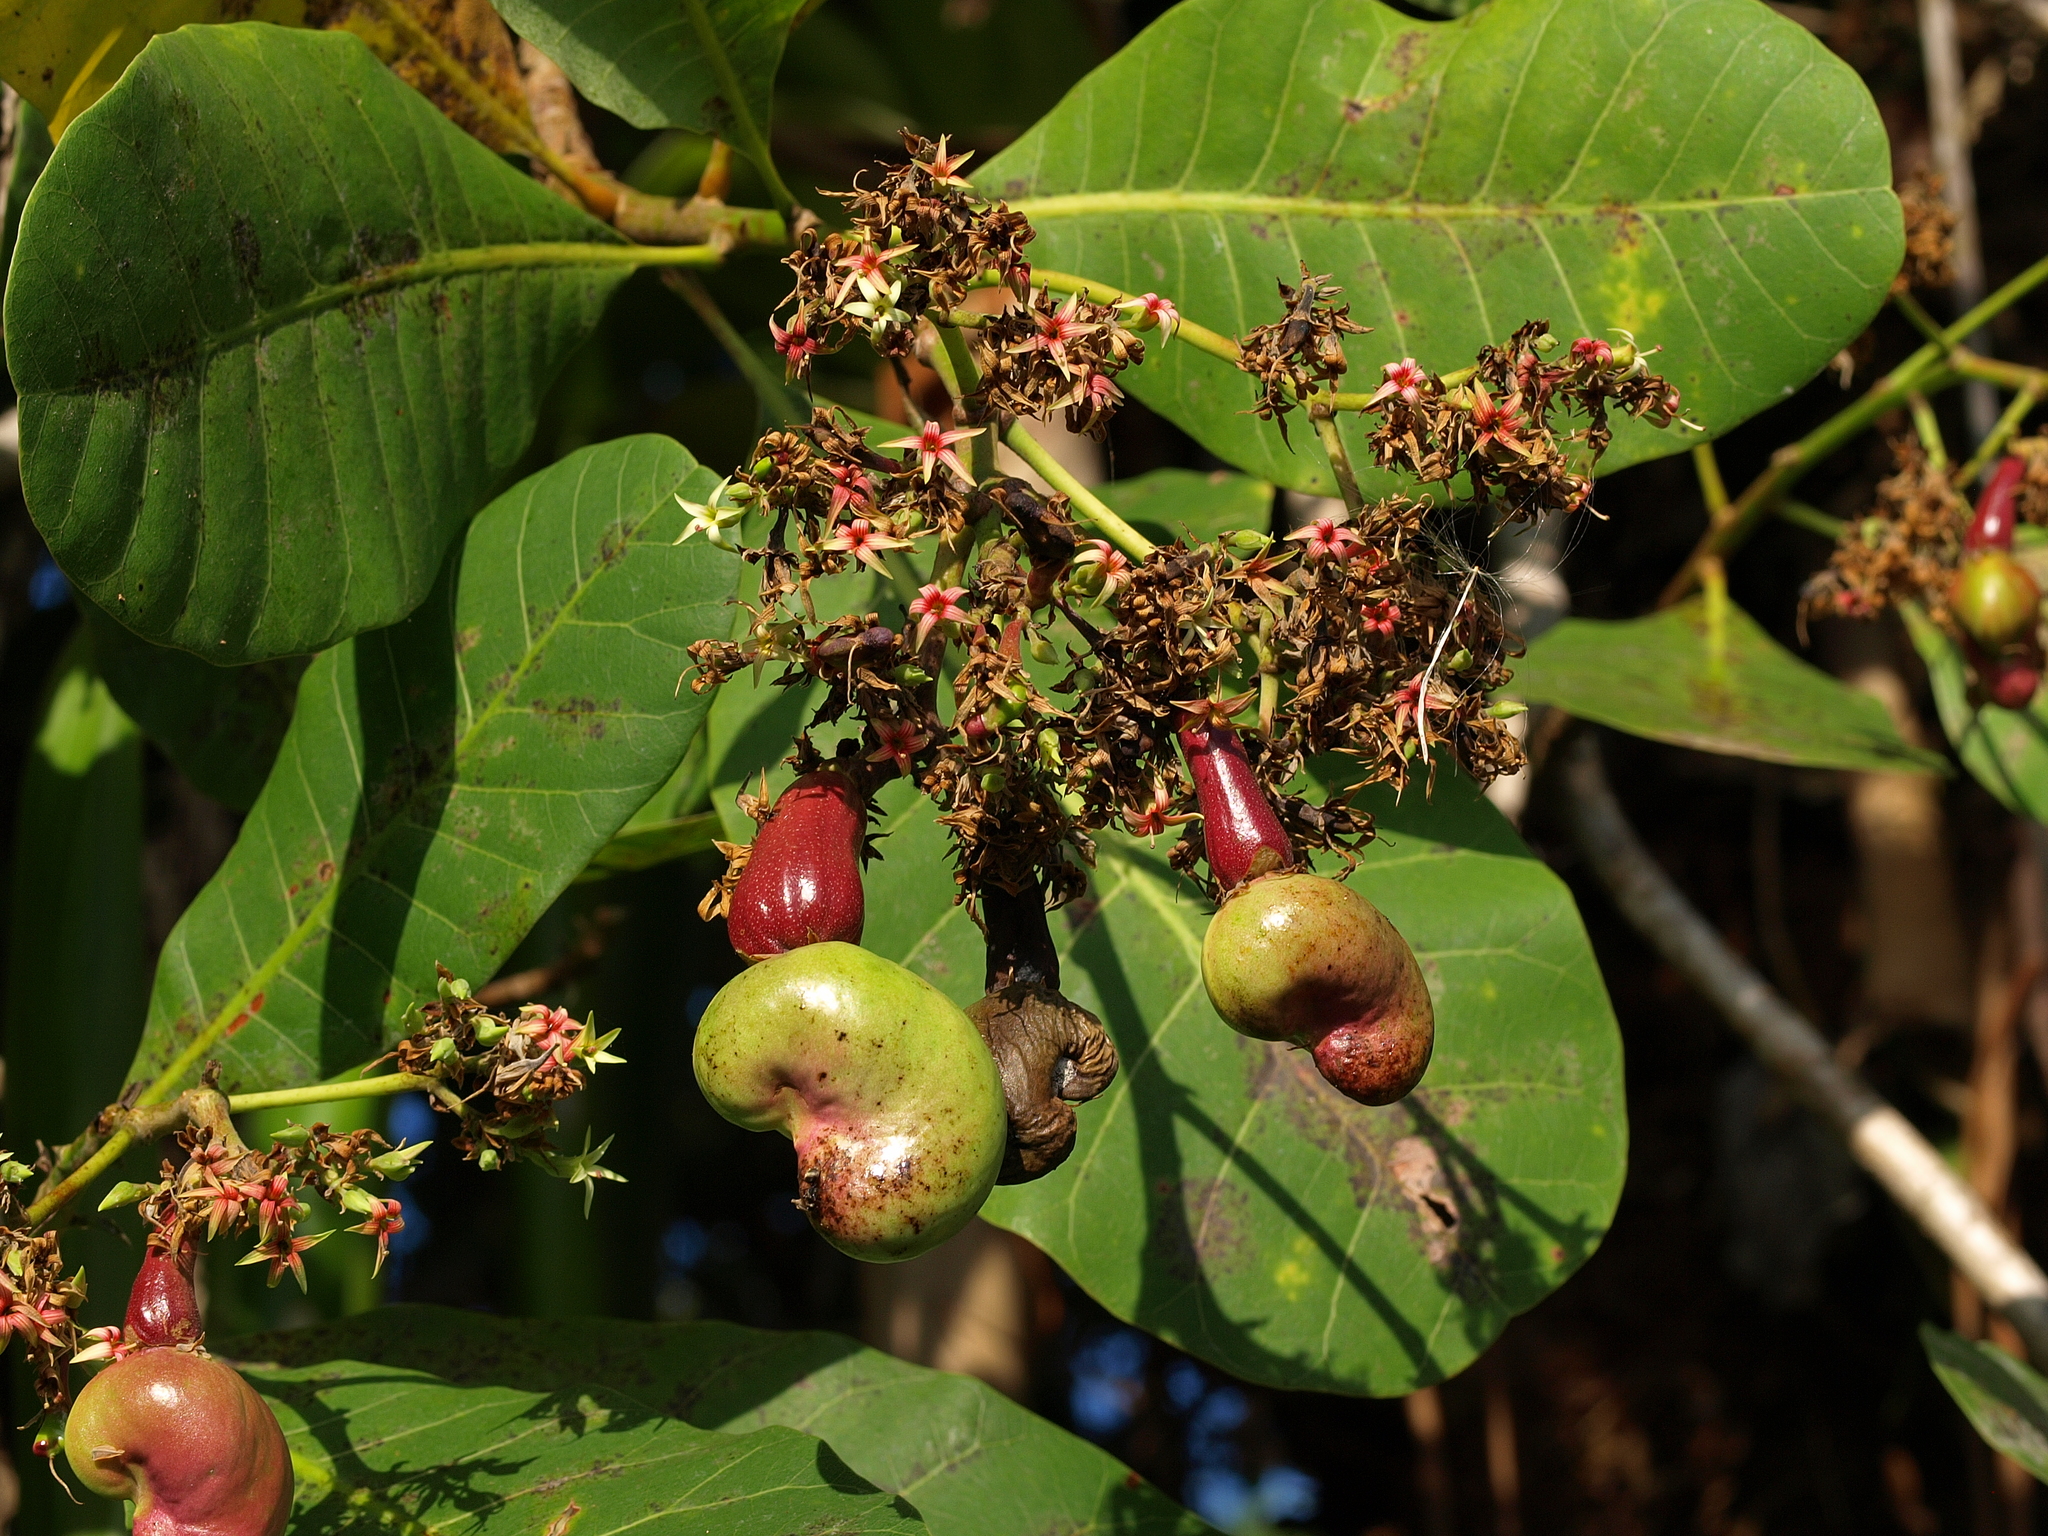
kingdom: Plantae
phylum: Tracheophyta
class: Magnoliopsida
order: Sapindales
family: Anacardiaceae
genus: Anacardium
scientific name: Anacardium occidentale
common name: Cashew
